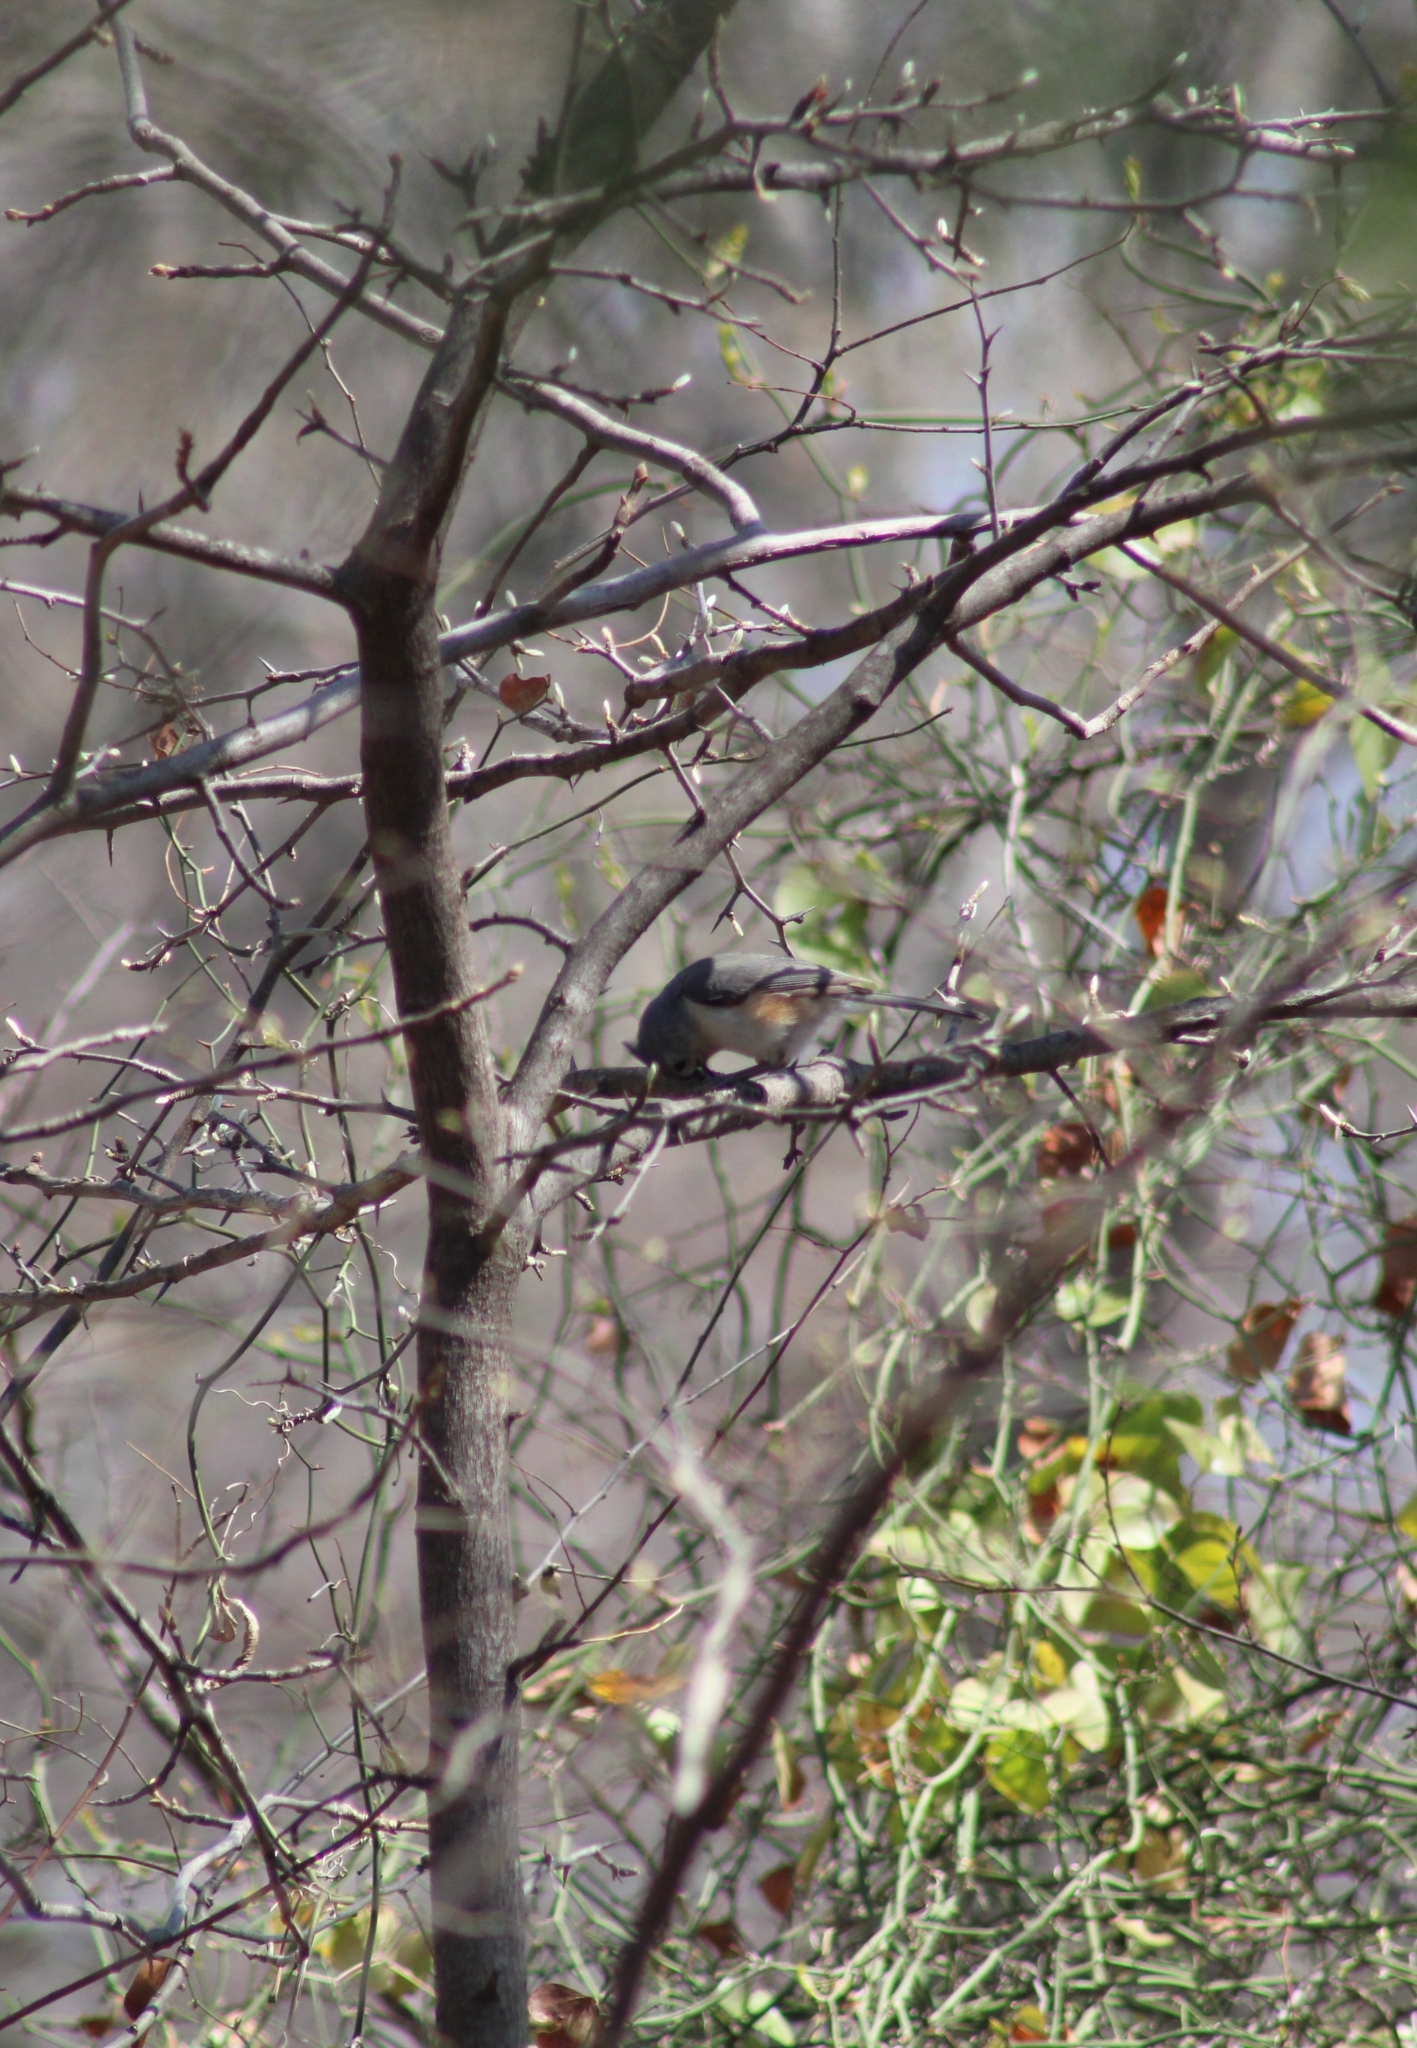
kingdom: Animalia
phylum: Chordata
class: Aves
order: Passeriformes
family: Paridae
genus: Baeolophus
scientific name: Baeolophus bicolor
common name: Tufted titmouse
